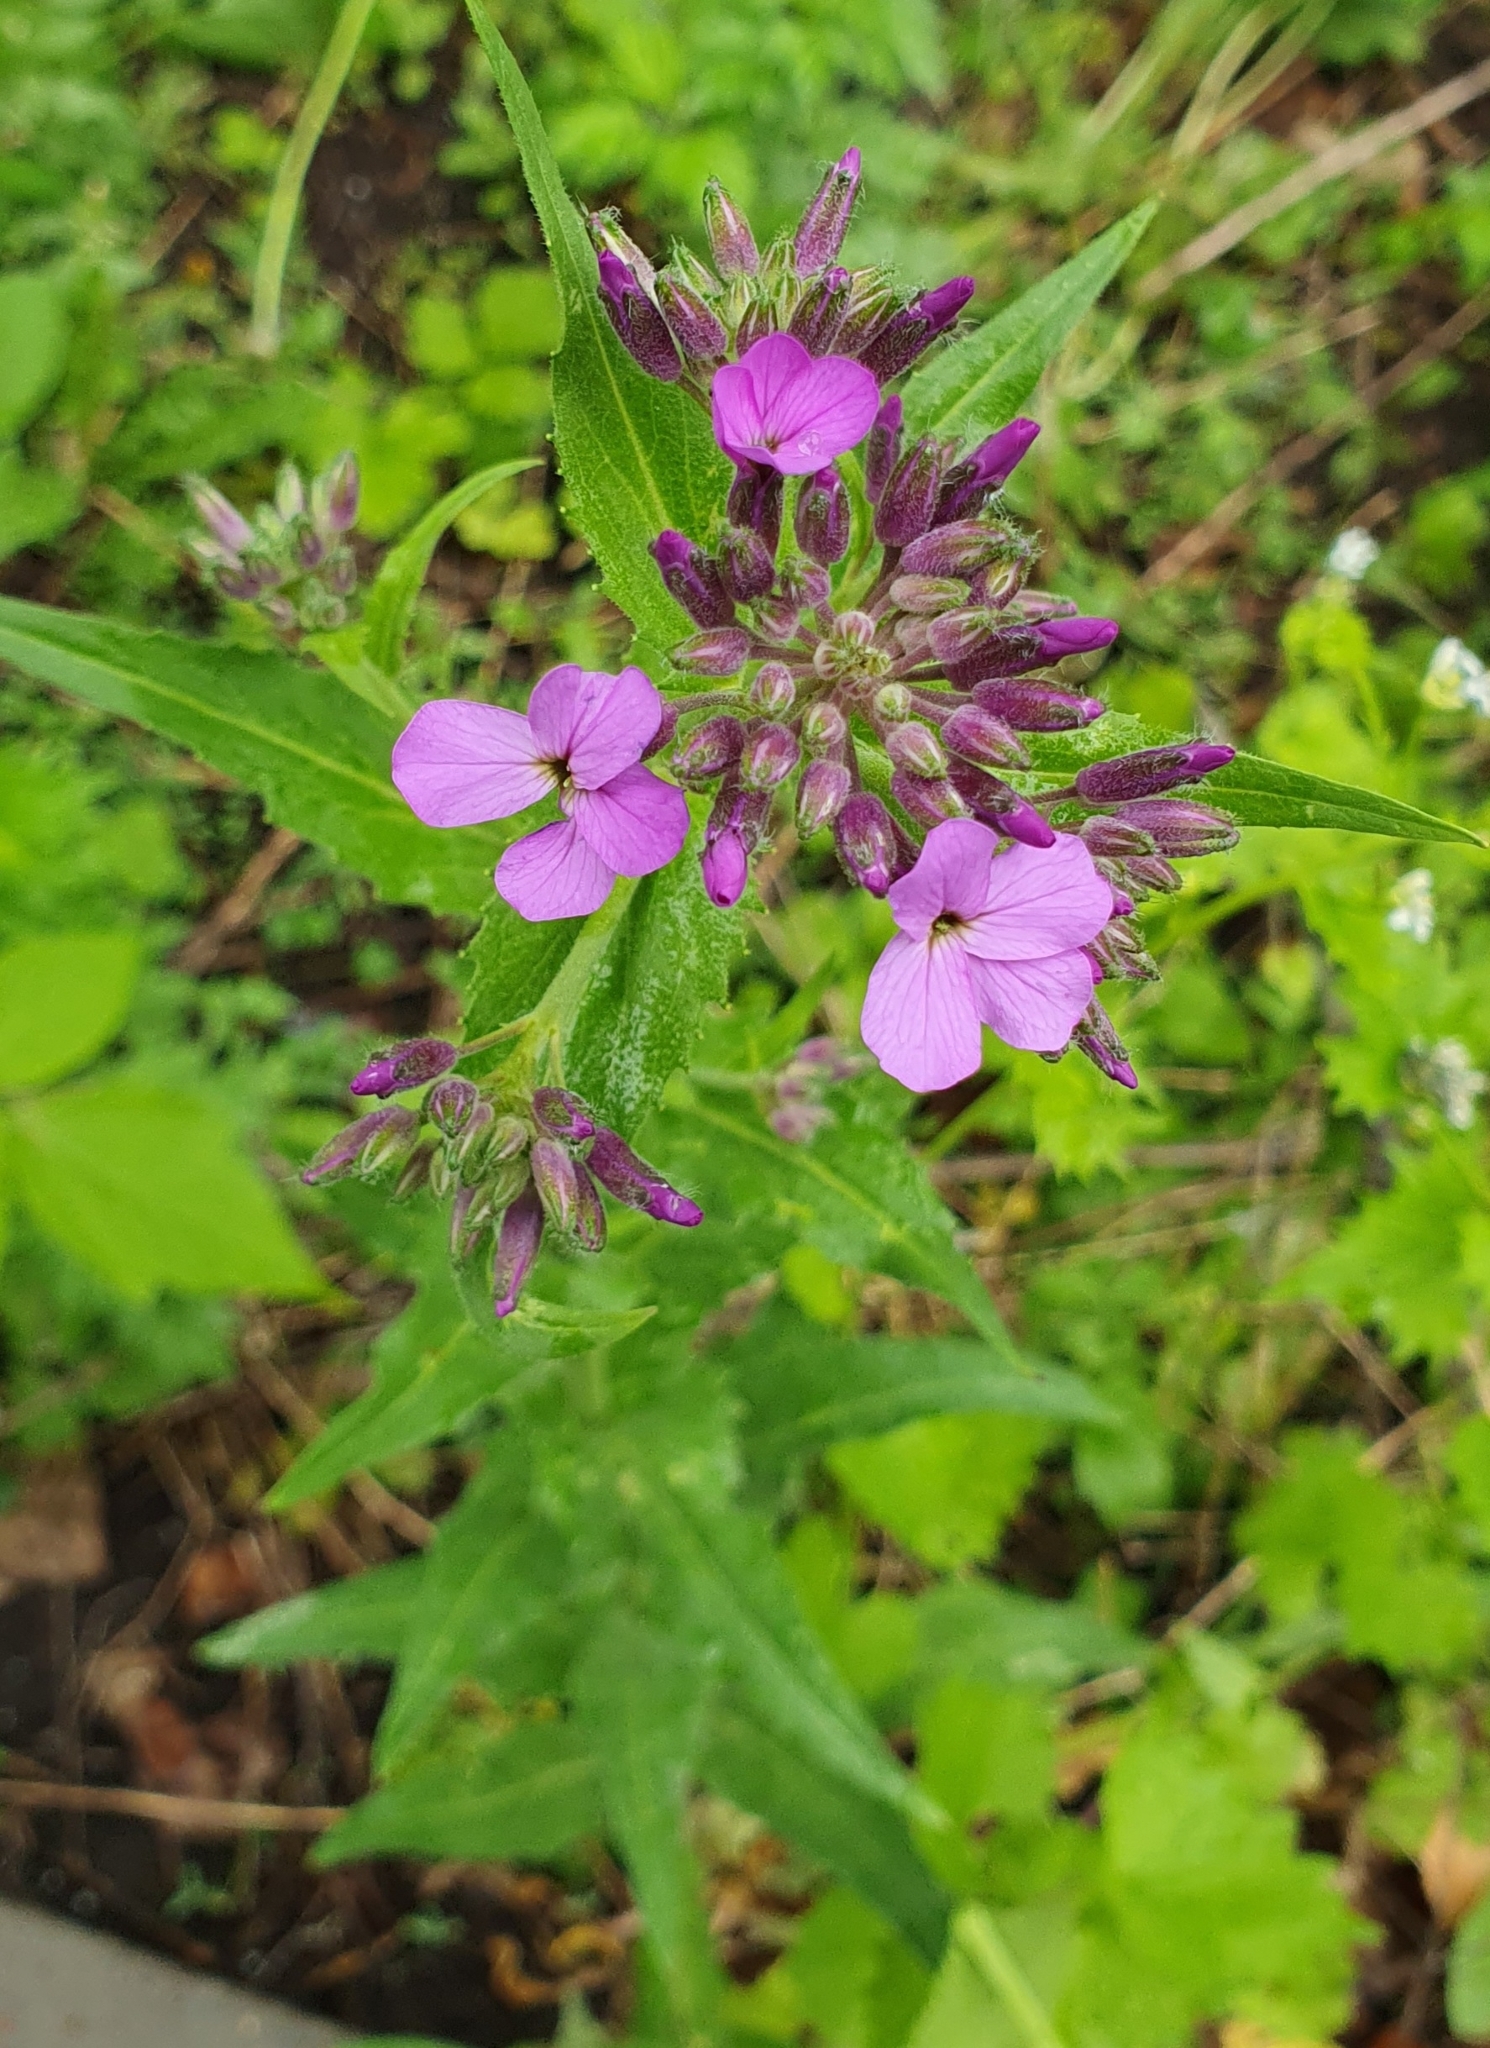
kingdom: Plantae
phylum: Tracheophyta
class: Magnoliopsida
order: Brassicales
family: Brassicaceae
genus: Hesperis
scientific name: Hesperis matronalis
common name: Dame's-violet
